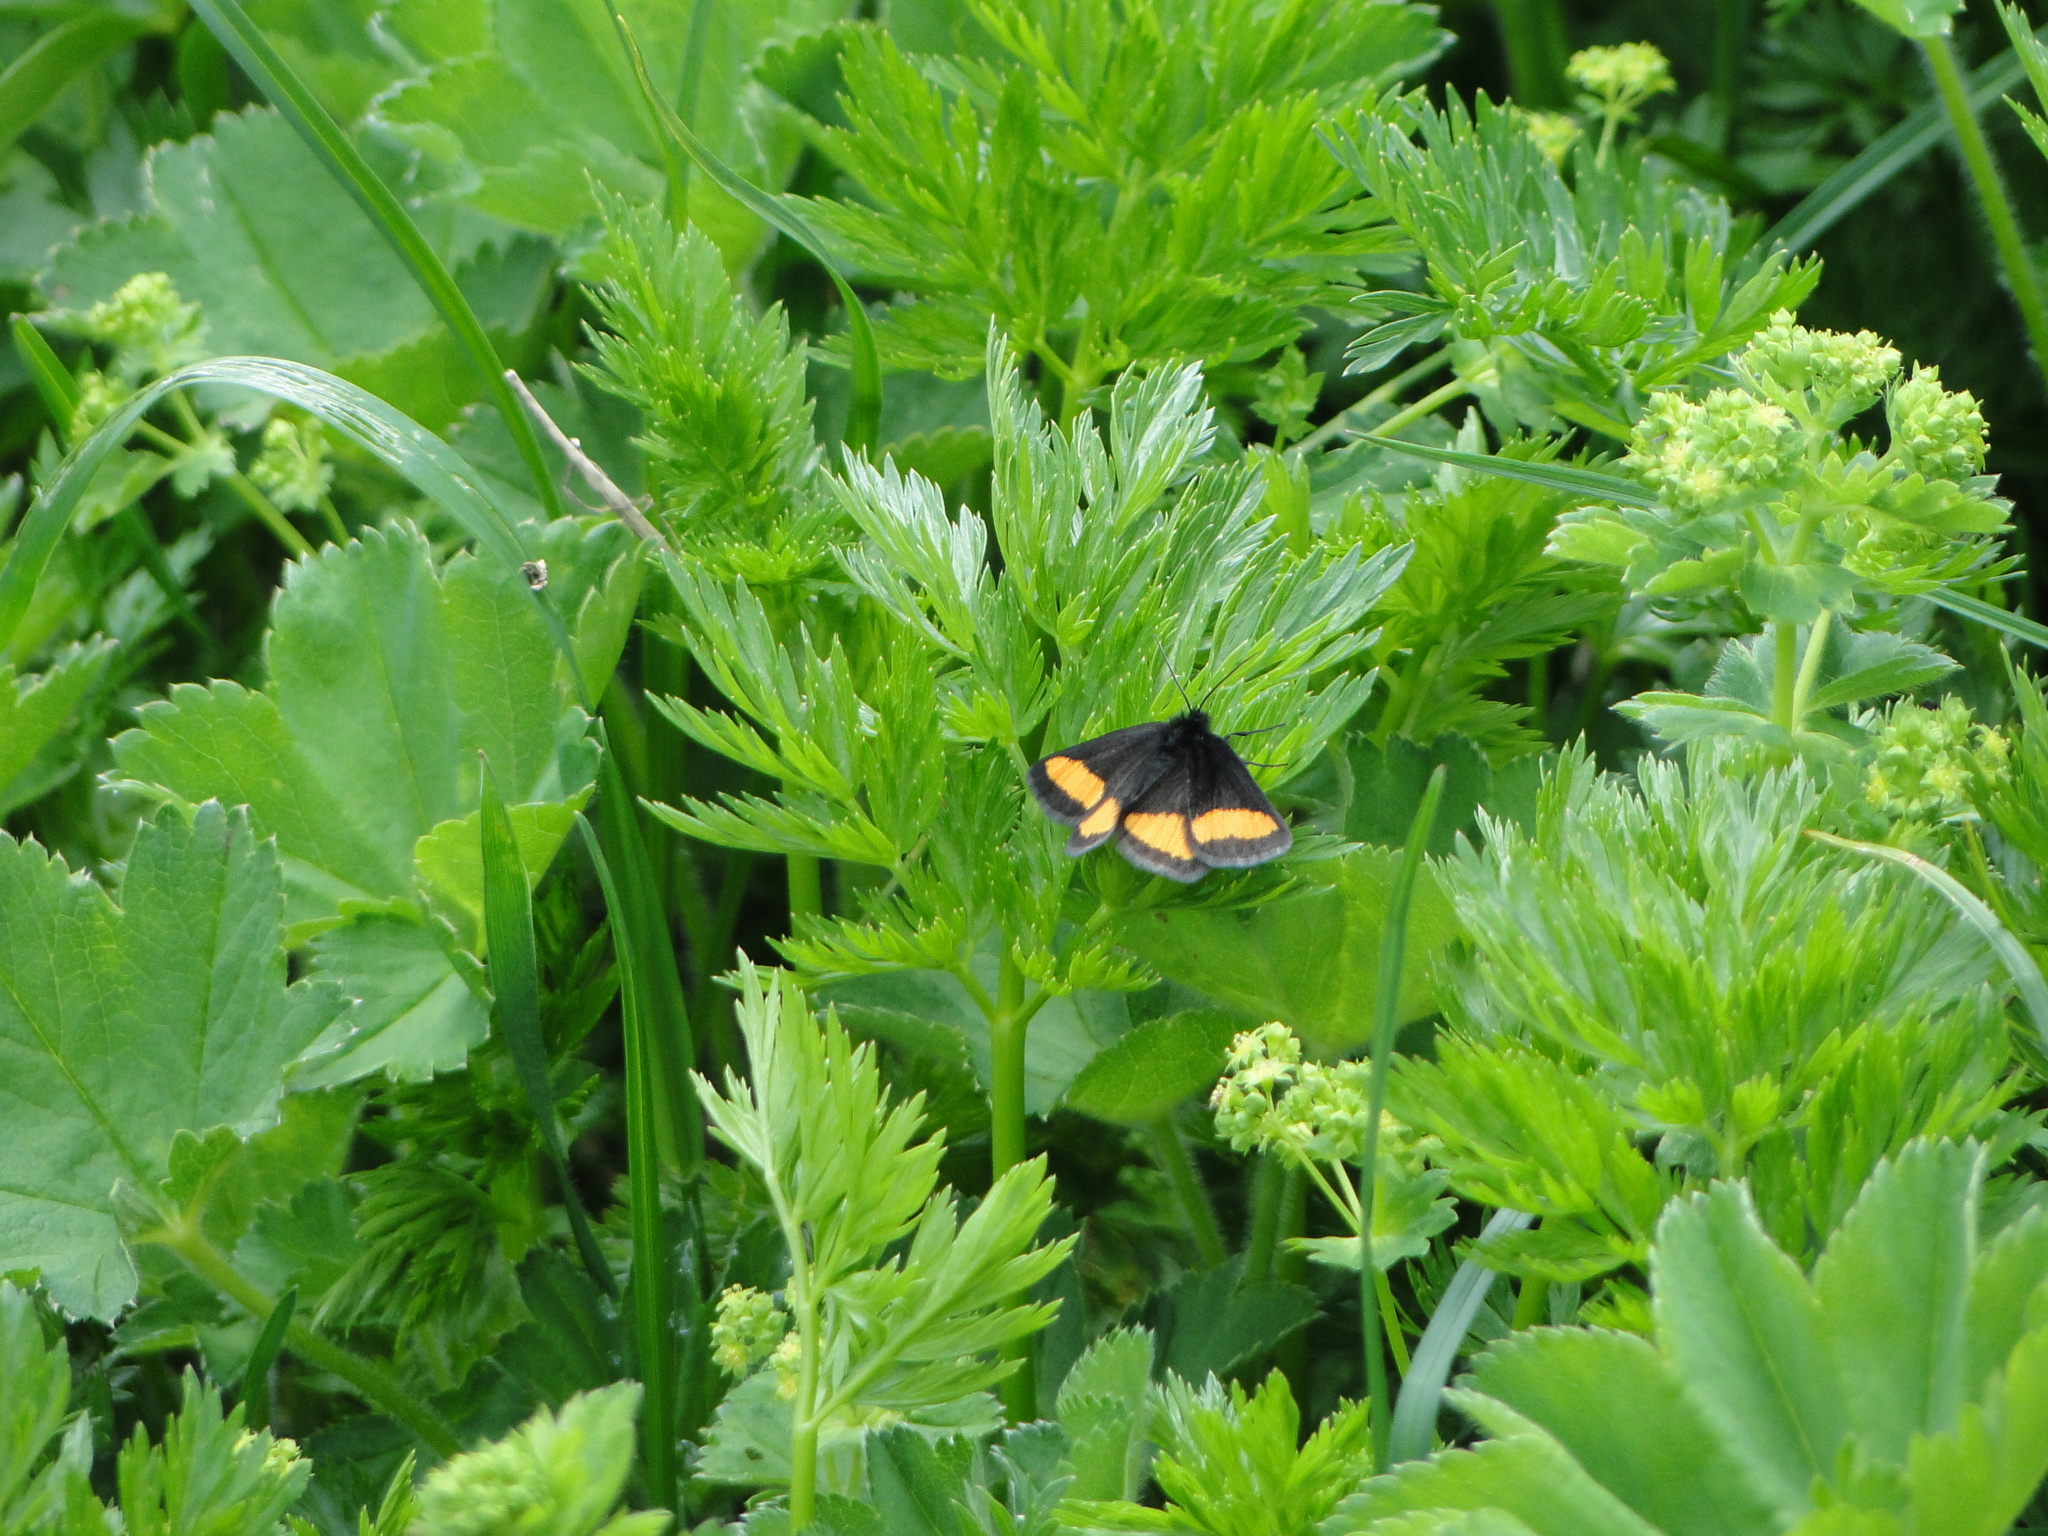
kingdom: Animalia
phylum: Arthropoda
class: Insecta
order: Lepidoptera
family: Geometridae
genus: Psodos
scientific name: Psodos quadrifaria
